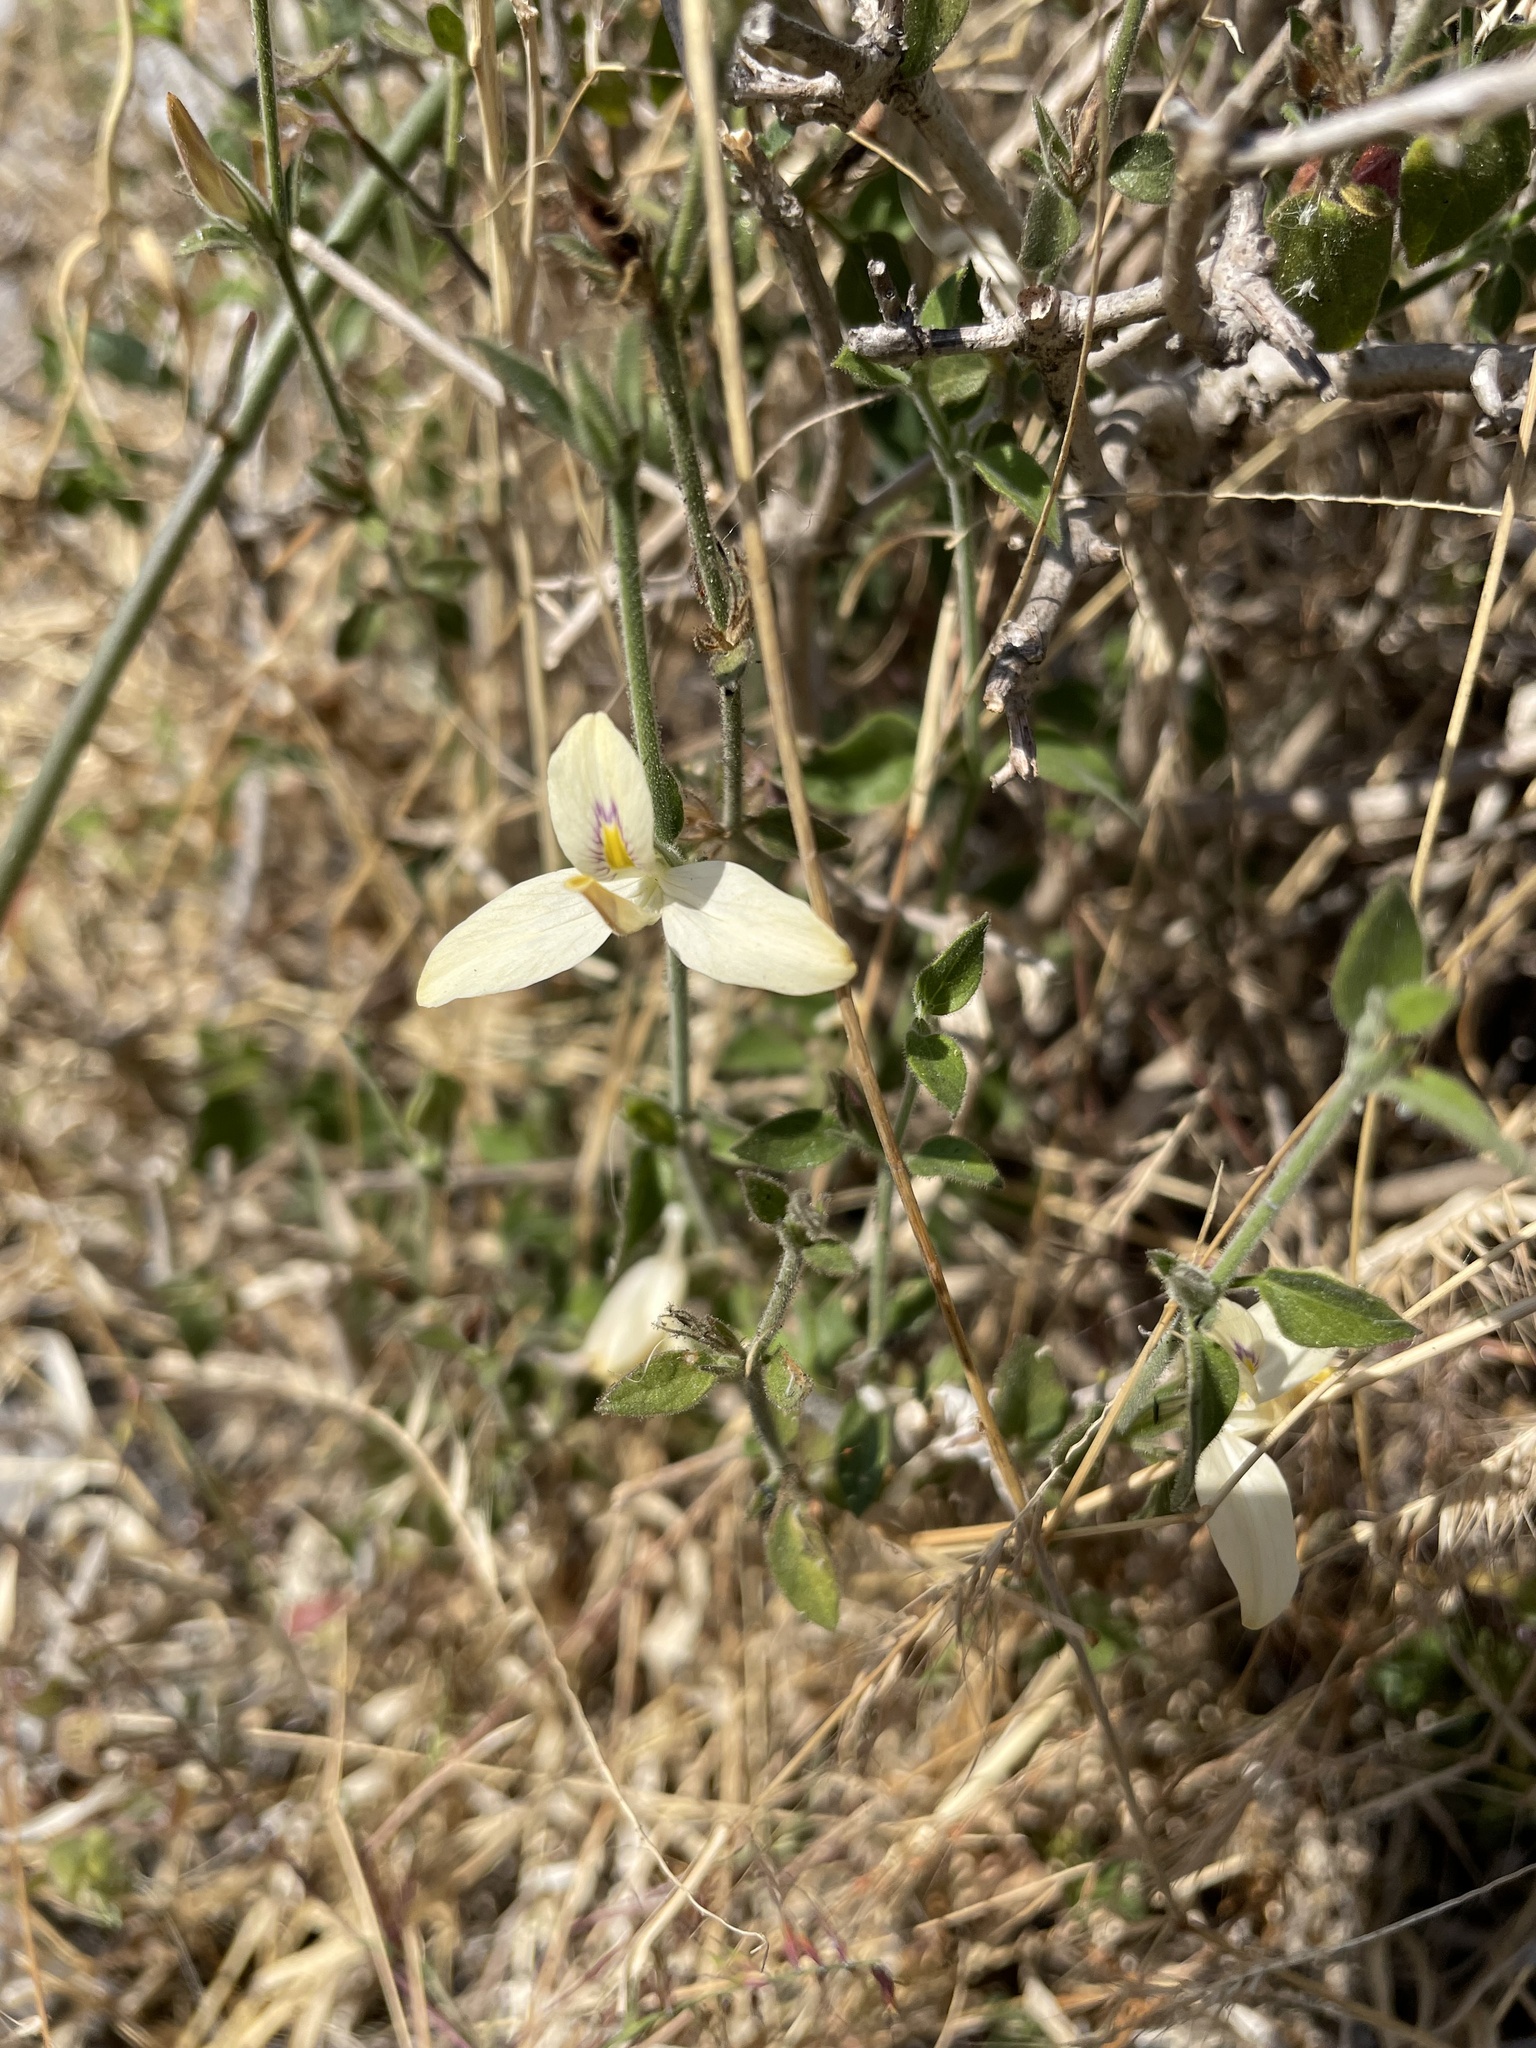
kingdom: Plantae
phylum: Tracheophyta
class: Magnoliopsida
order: Lamiales
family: Acanthaceae
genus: Carlowrightia
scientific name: Carlowrightia neesiana
